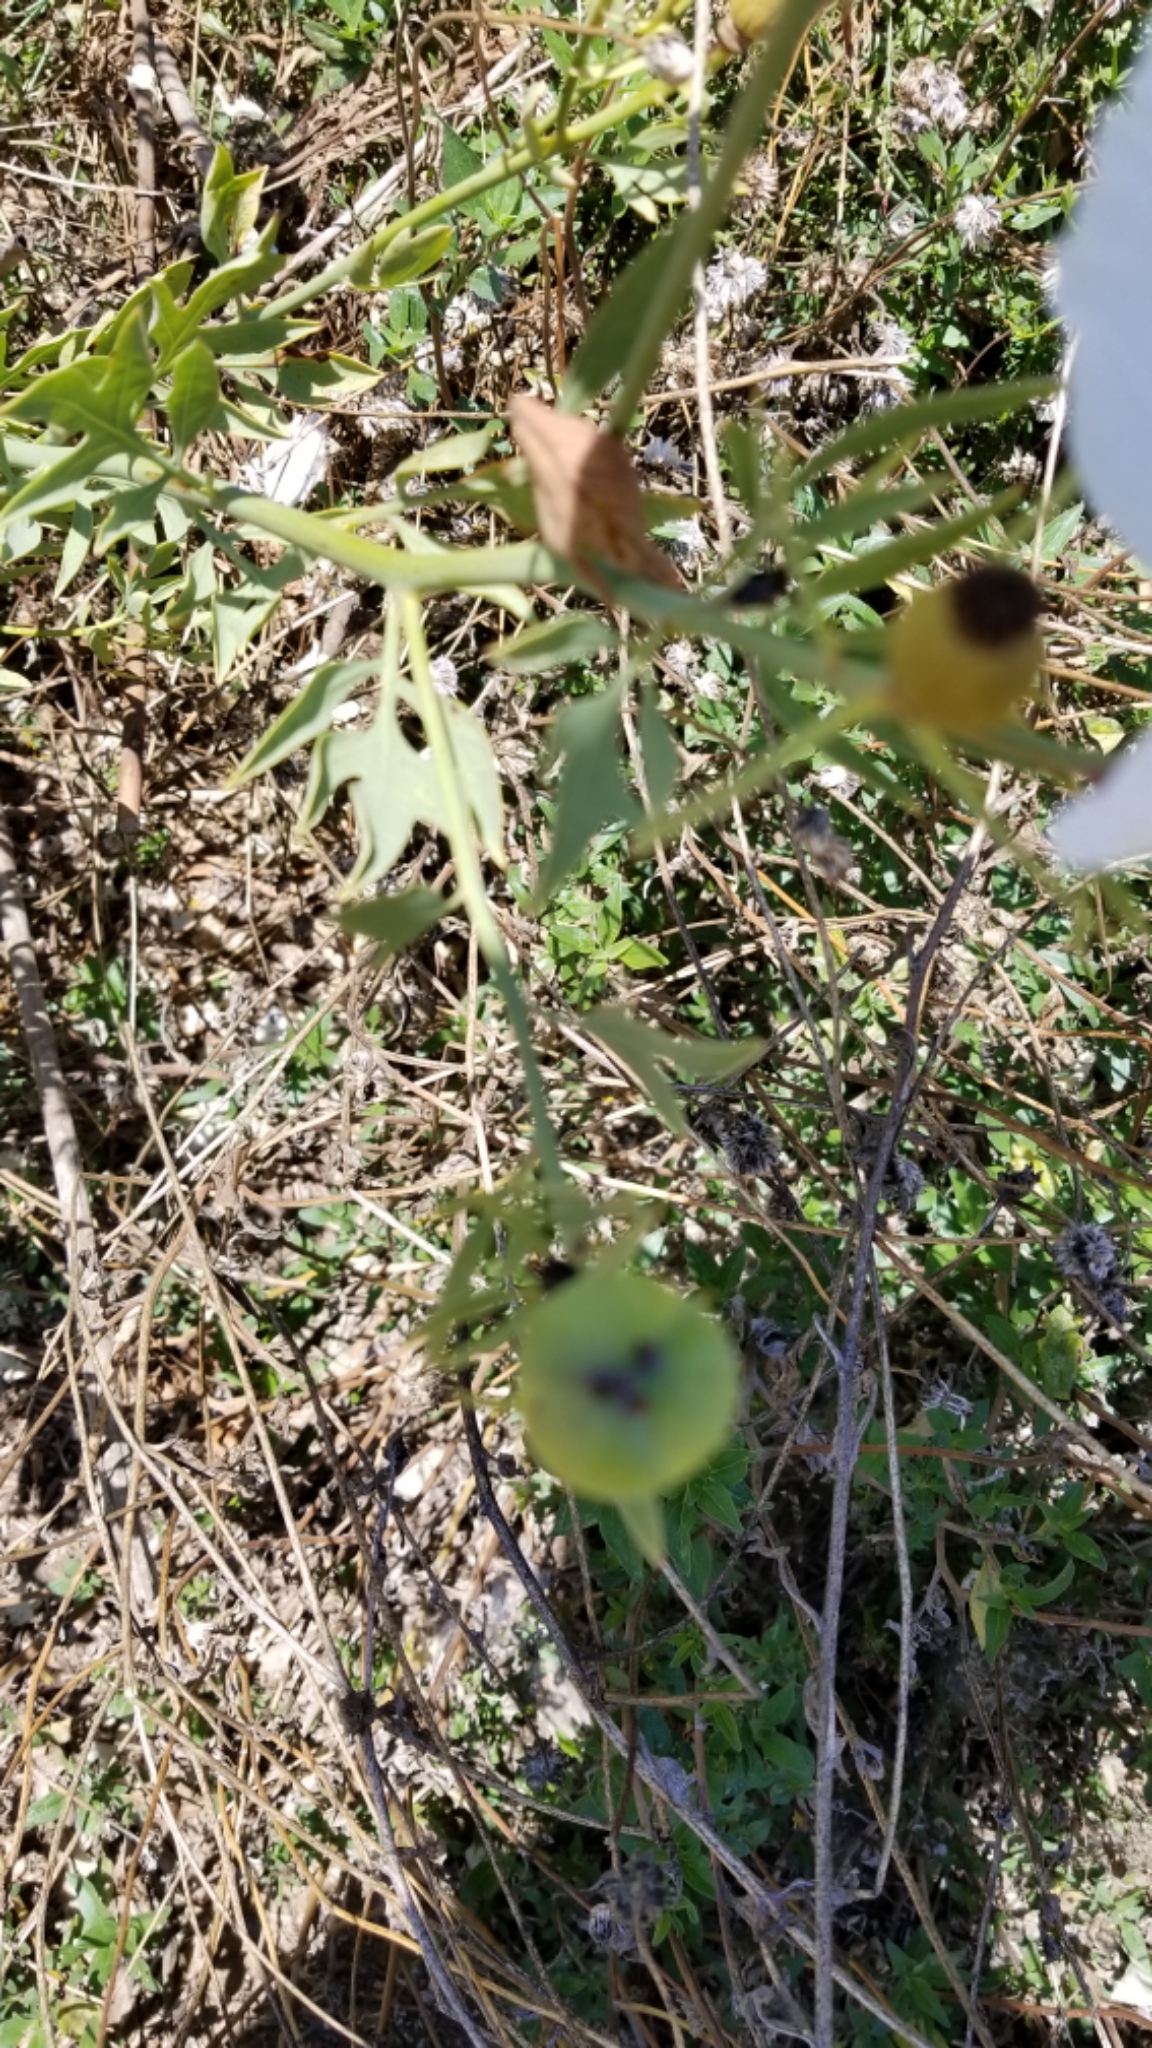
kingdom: Plantae
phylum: Tracheophyta
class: Magnoliopsida
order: Ranunculales
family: Papaveraceae
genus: Romneya
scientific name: Romneya coulteri
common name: California tree-poppy
